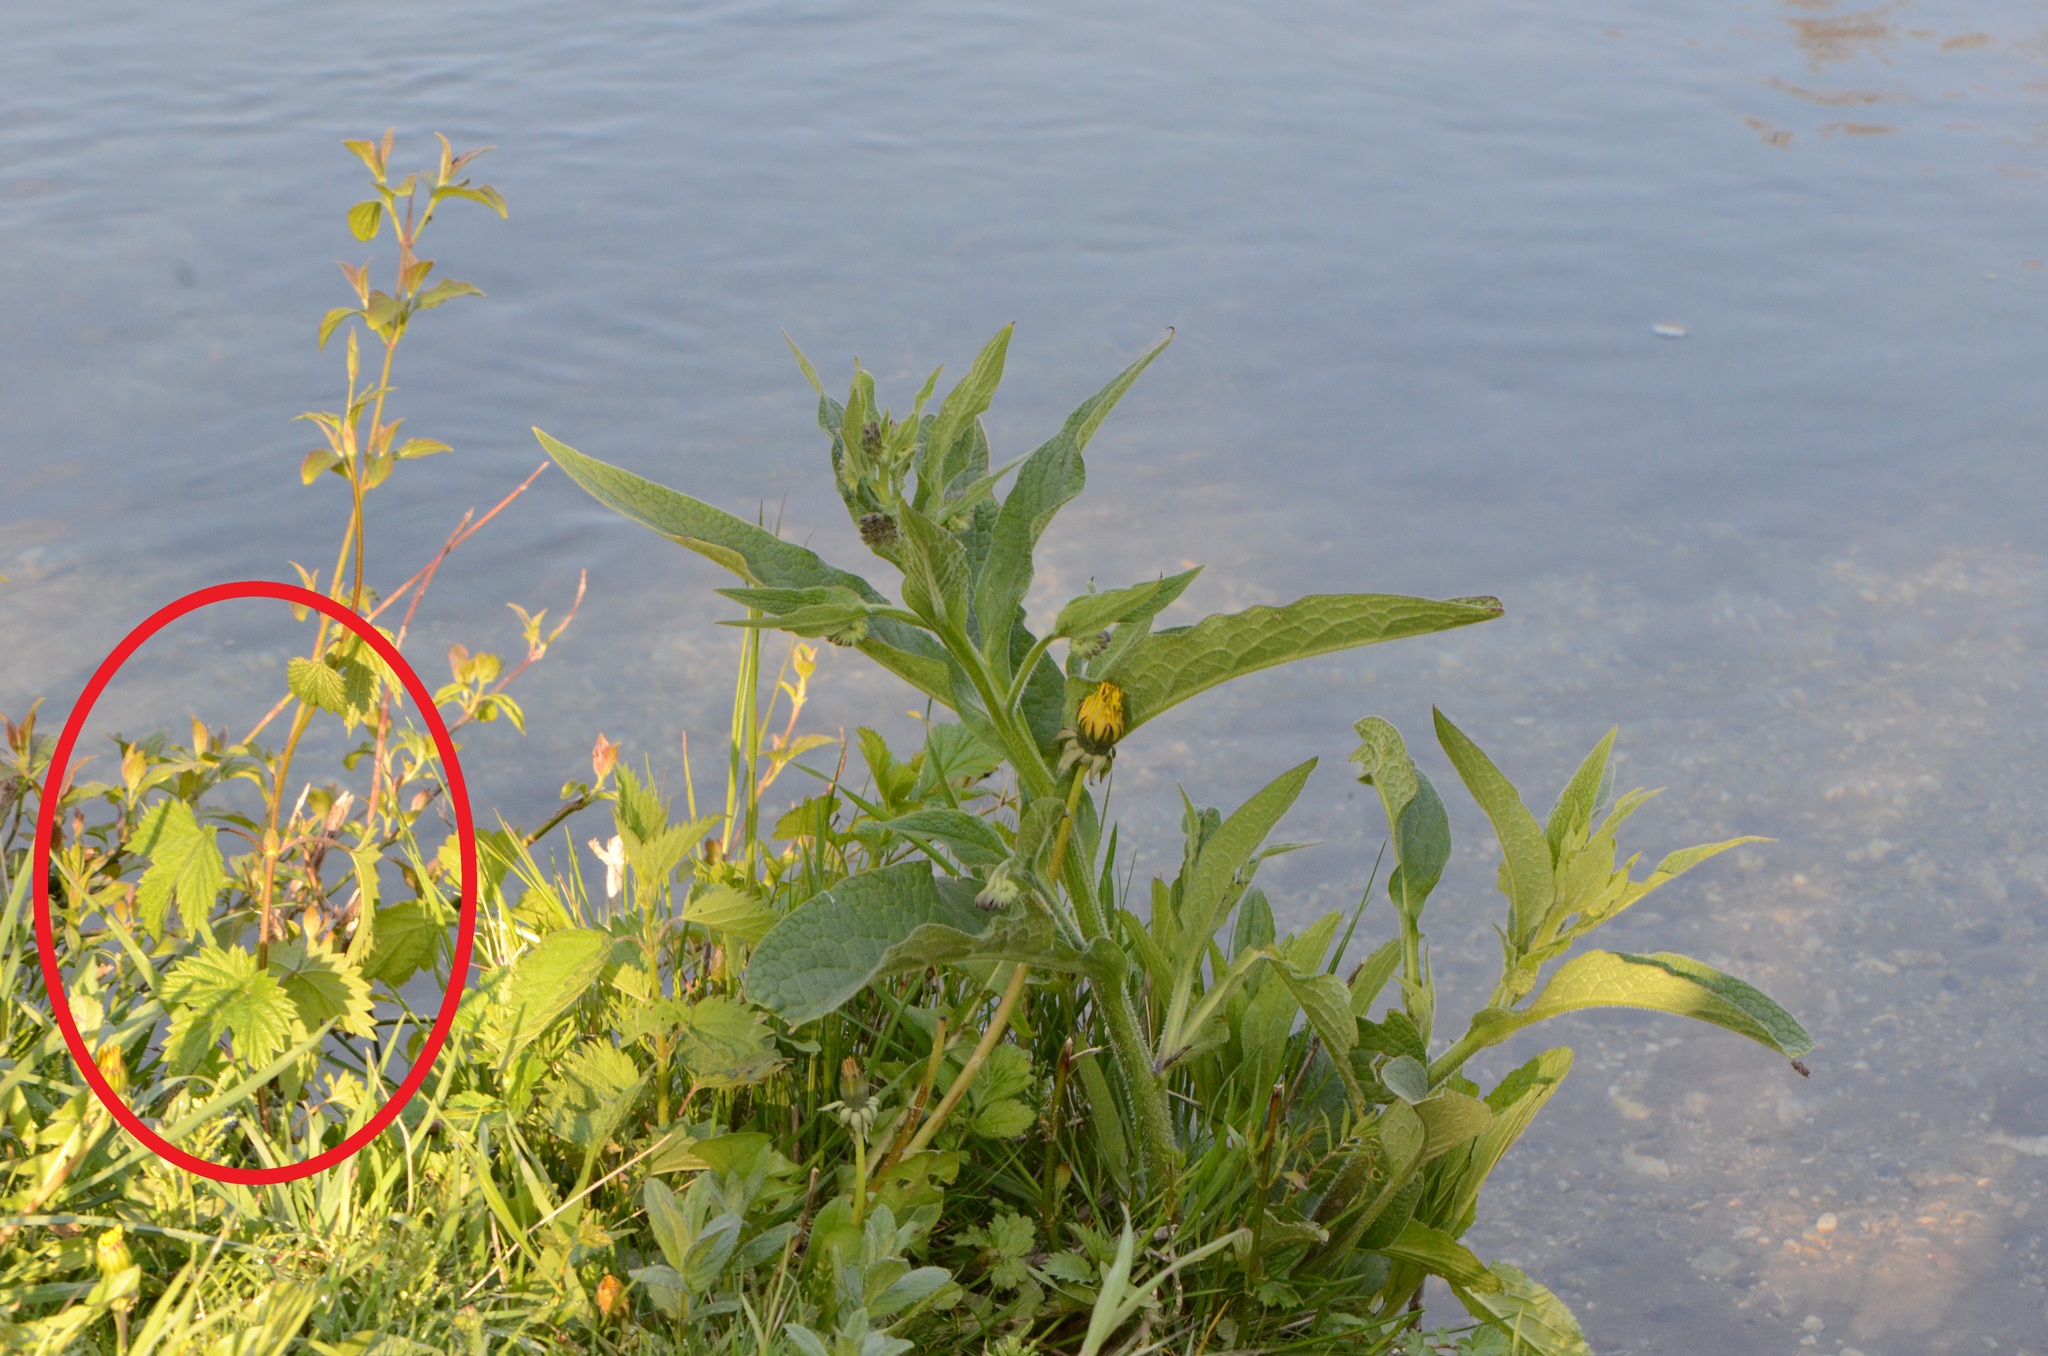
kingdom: Plantae
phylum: Tracheophyta
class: Magnoliopsida
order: Rosales
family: Cannabaceae
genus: Humulus
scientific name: Humulus lupulus
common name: Hop
